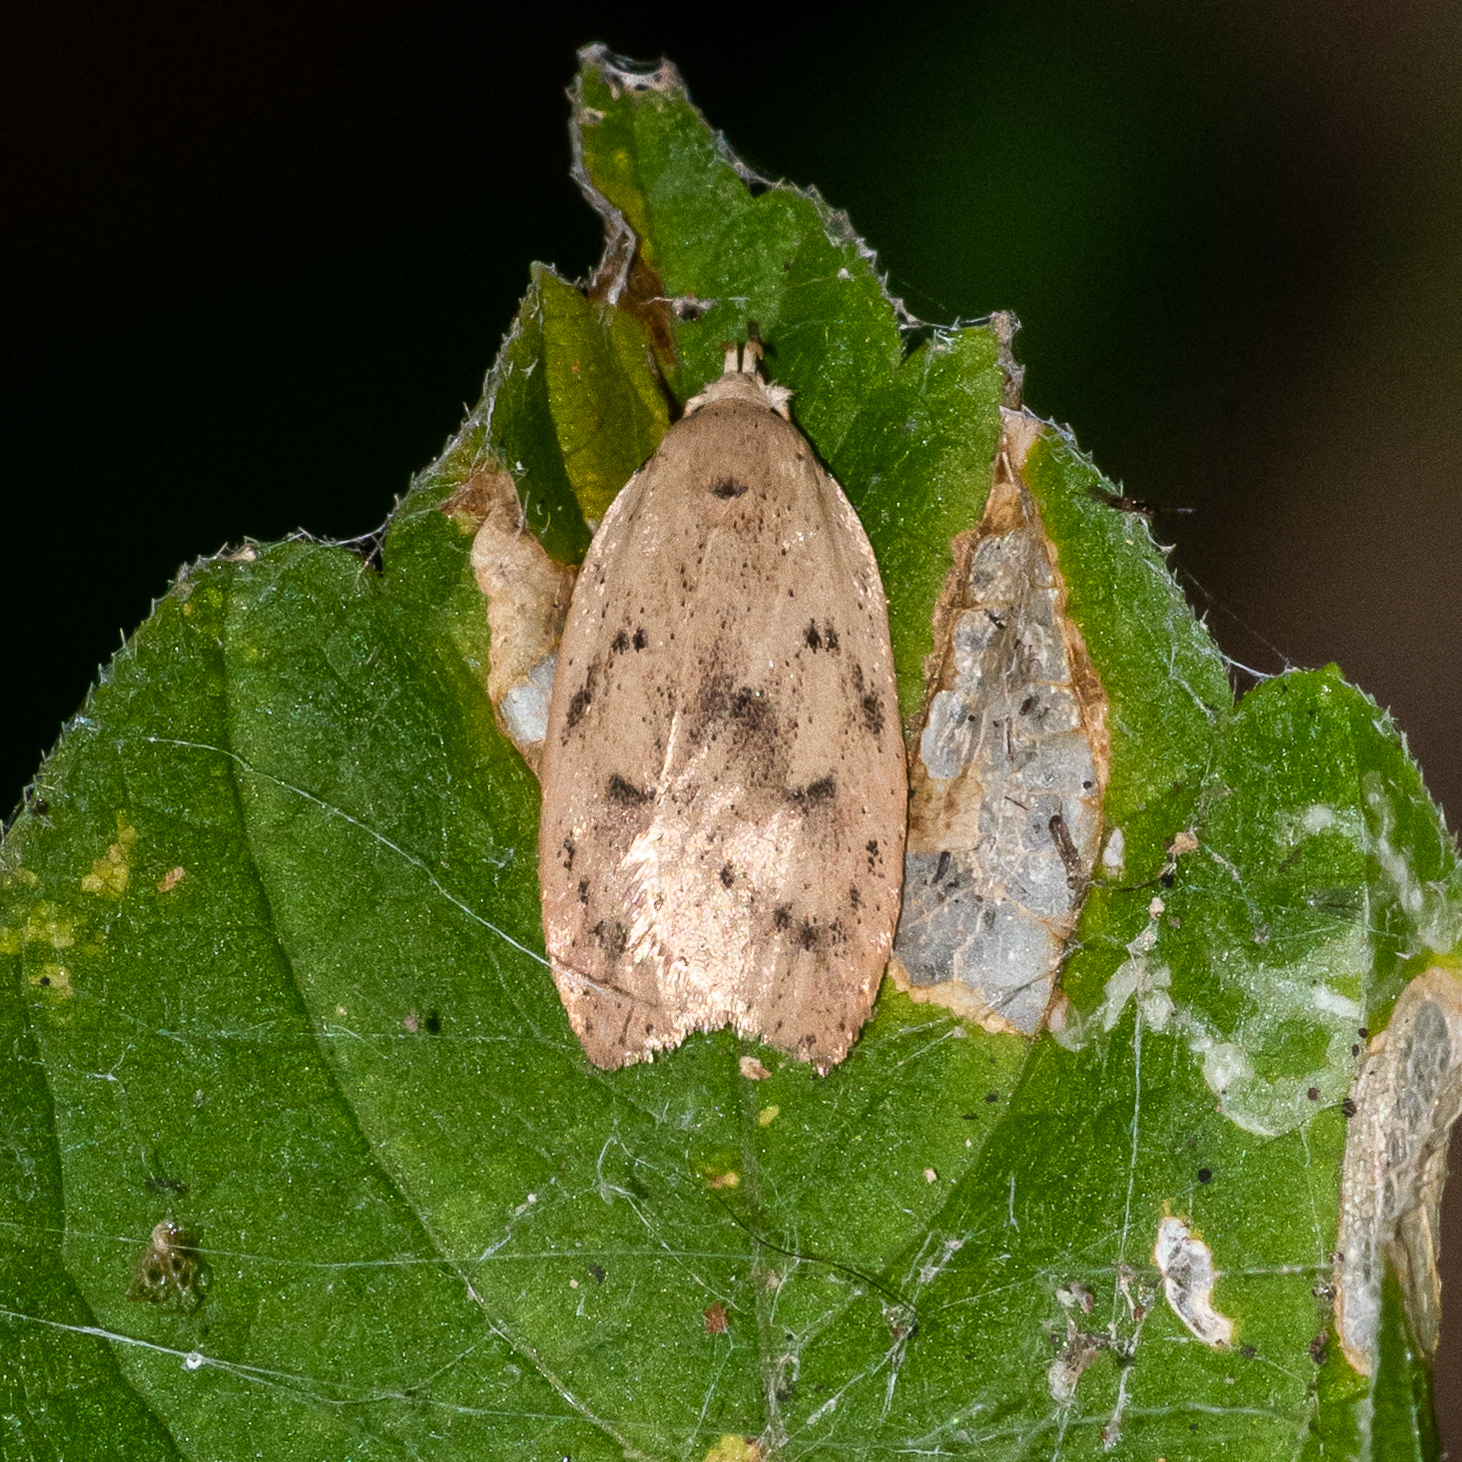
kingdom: Animalia
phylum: Arthropoda
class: Insecta
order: Lepidoptera
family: Peleopodidae
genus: Machimia
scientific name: Machimia tentoriferella
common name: Gold-striped leaftier moth
